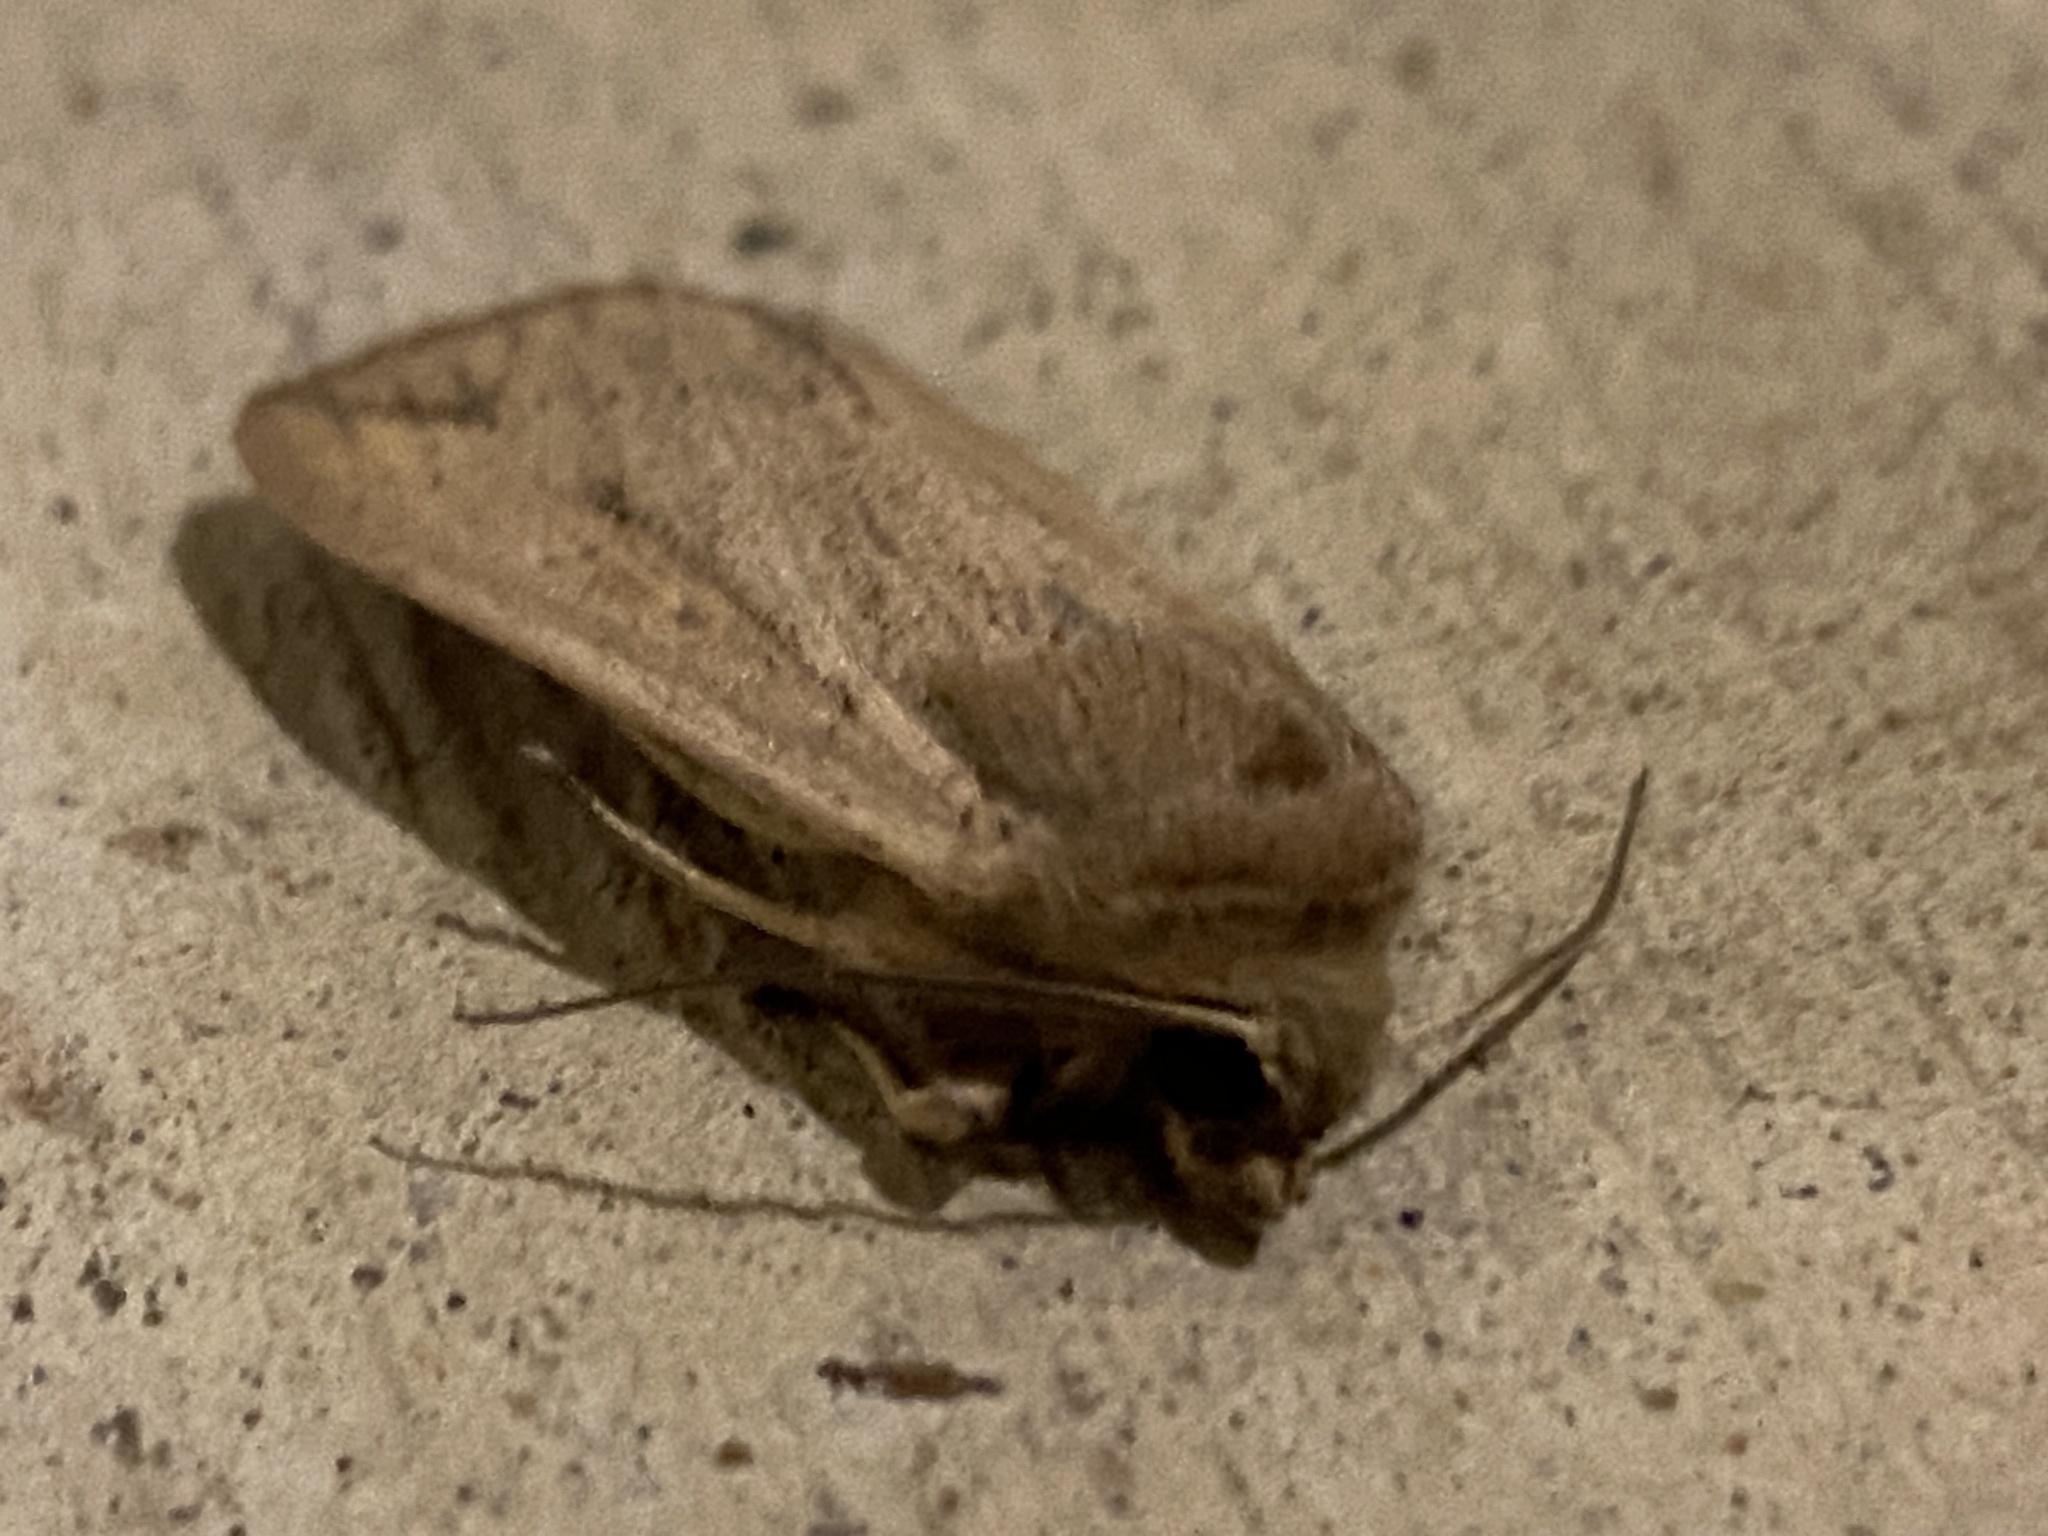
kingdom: Animalia
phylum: Arthropoda
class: Insecta
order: Lepidoptera
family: Noctuidae
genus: Mythimna
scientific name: Mythimna unipuncta
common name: White-speck
